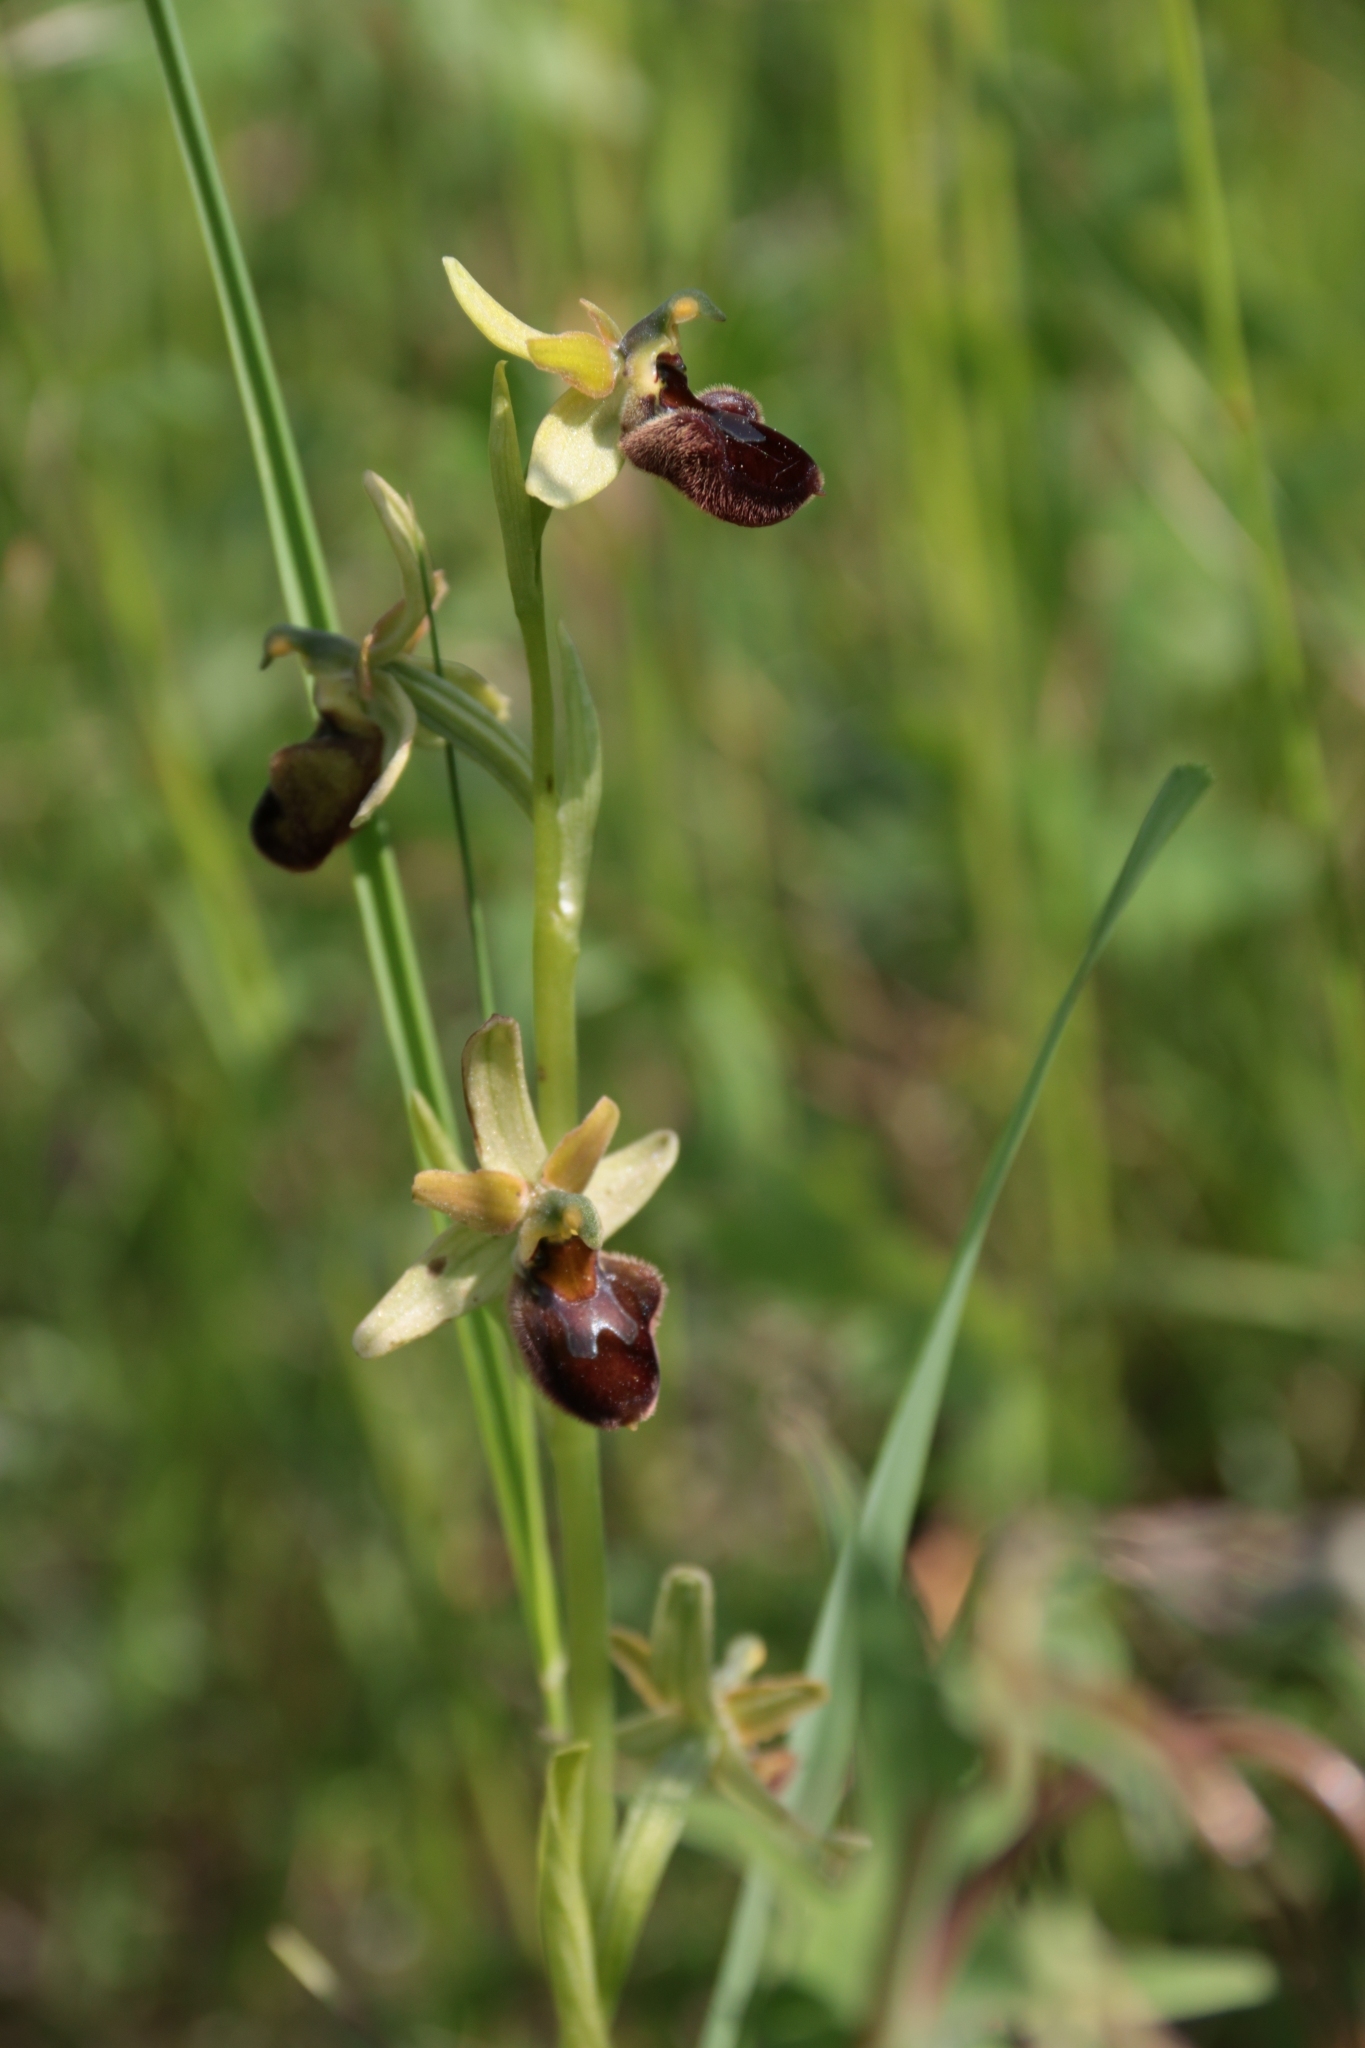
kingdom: Plantae
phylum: Tracheophyta
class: Liliopsida
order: Asparagales
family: Orchidaceae
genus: Ophrys
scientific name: Ophrys sphegodes
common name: Early spider-orchid
